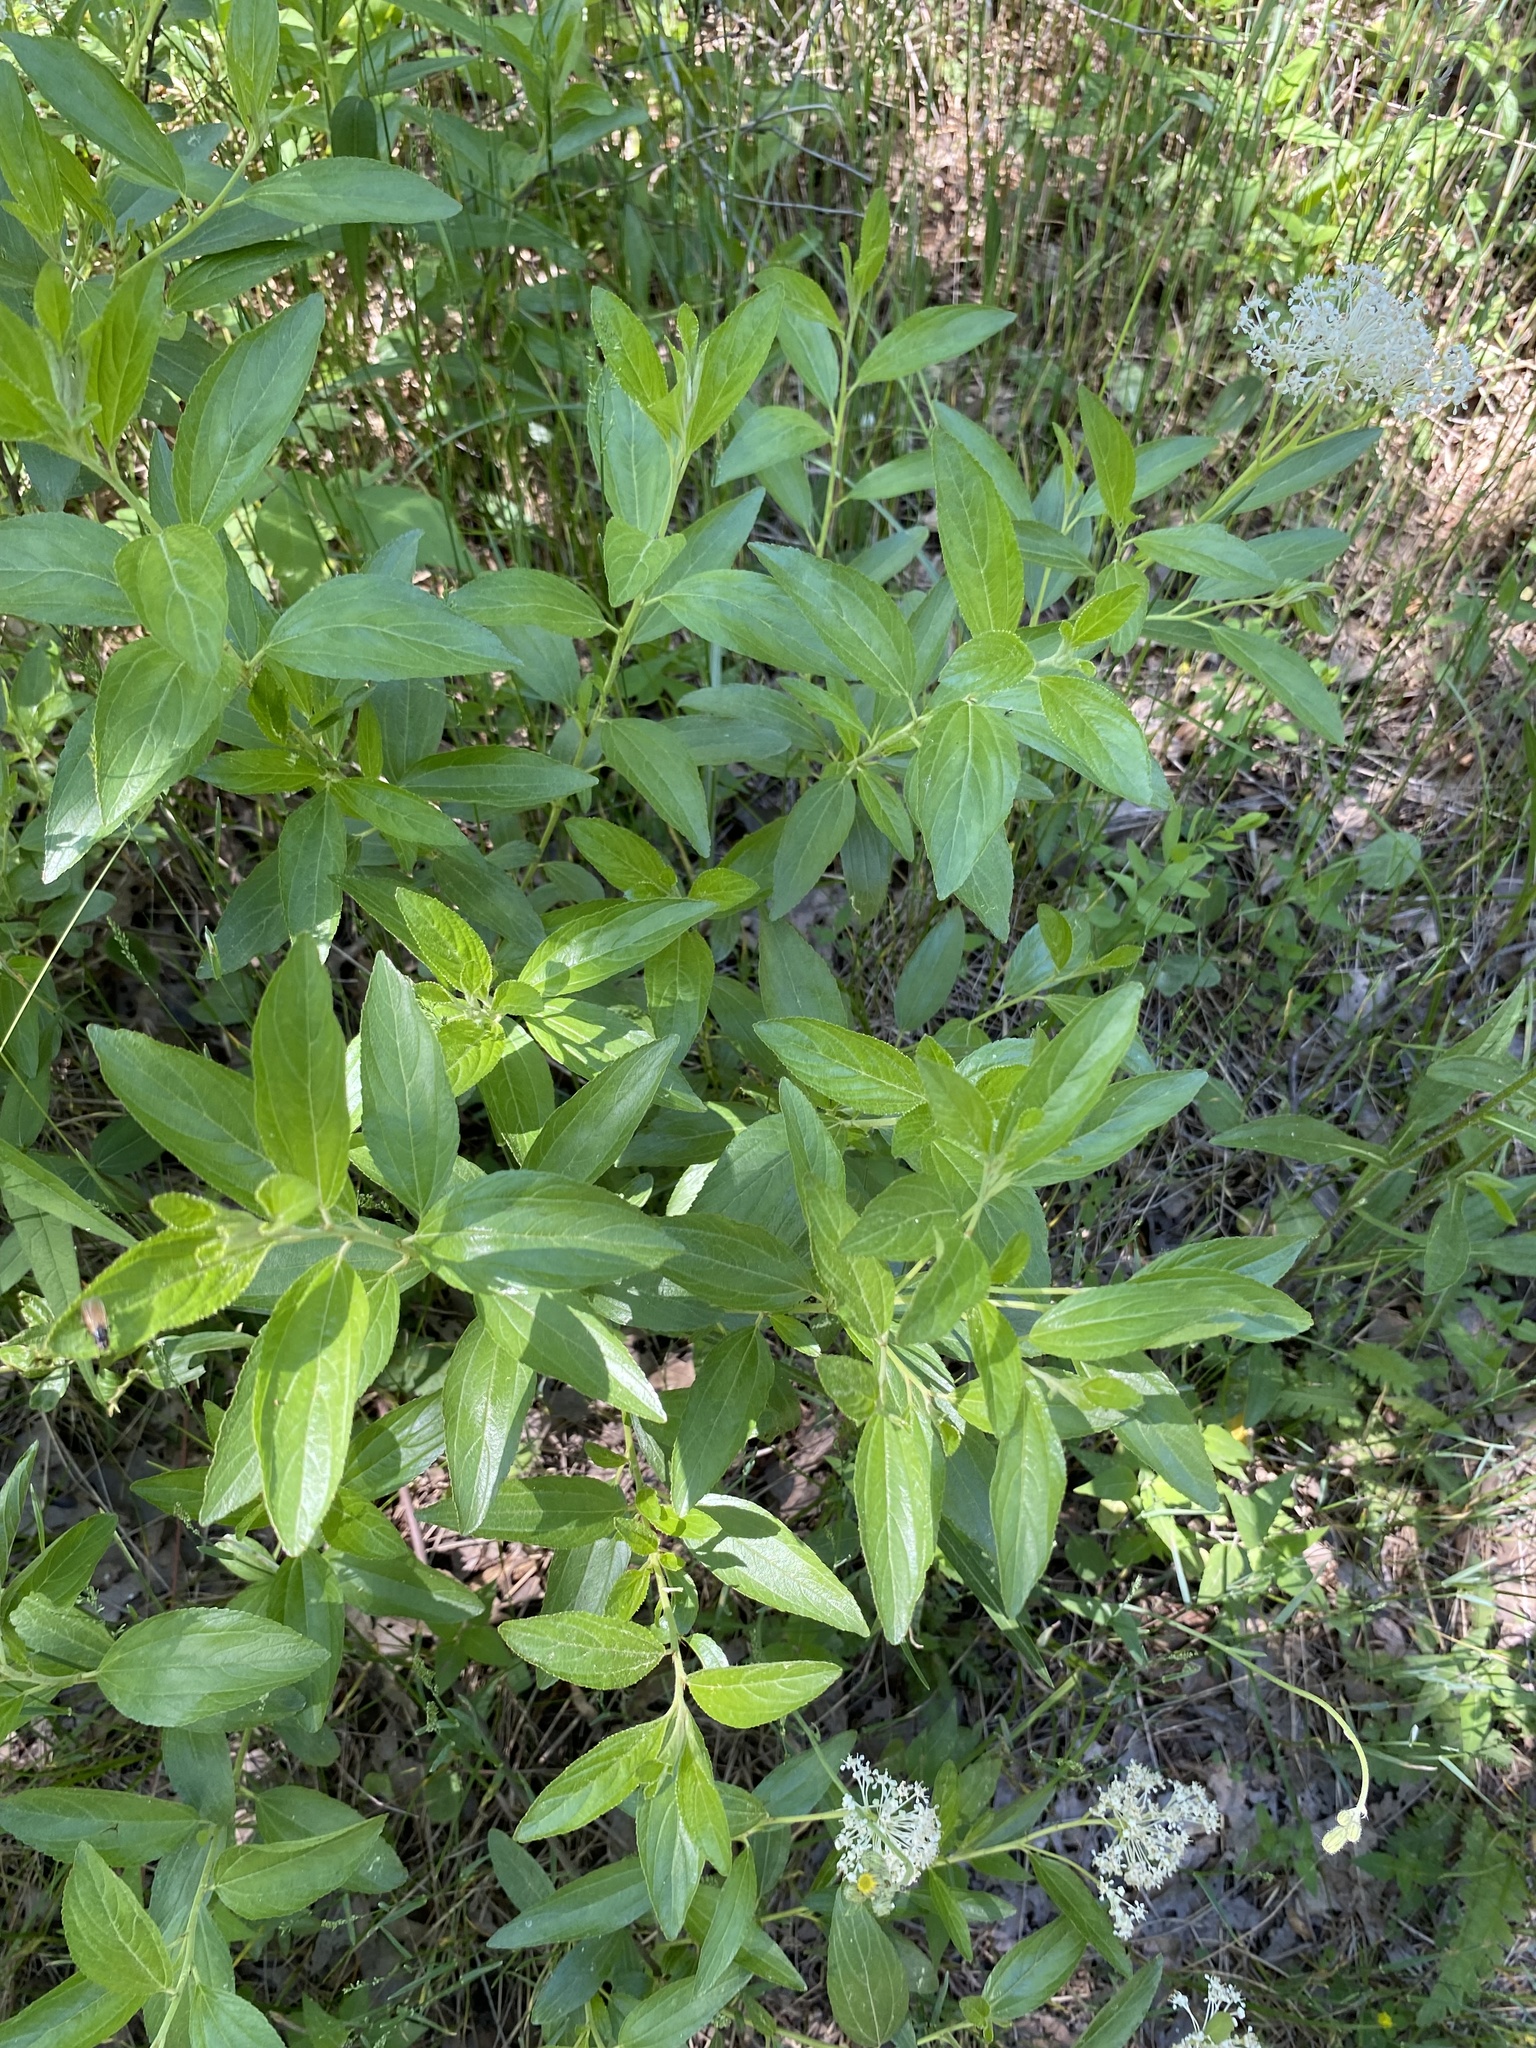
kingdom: Plantae
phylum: Tracheophyta
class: Magnoliopsida
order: Rosales
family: Rhamnaceae
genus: Ceanothus
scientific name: Ceanothus herbaceus
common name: Inland ceanothus
